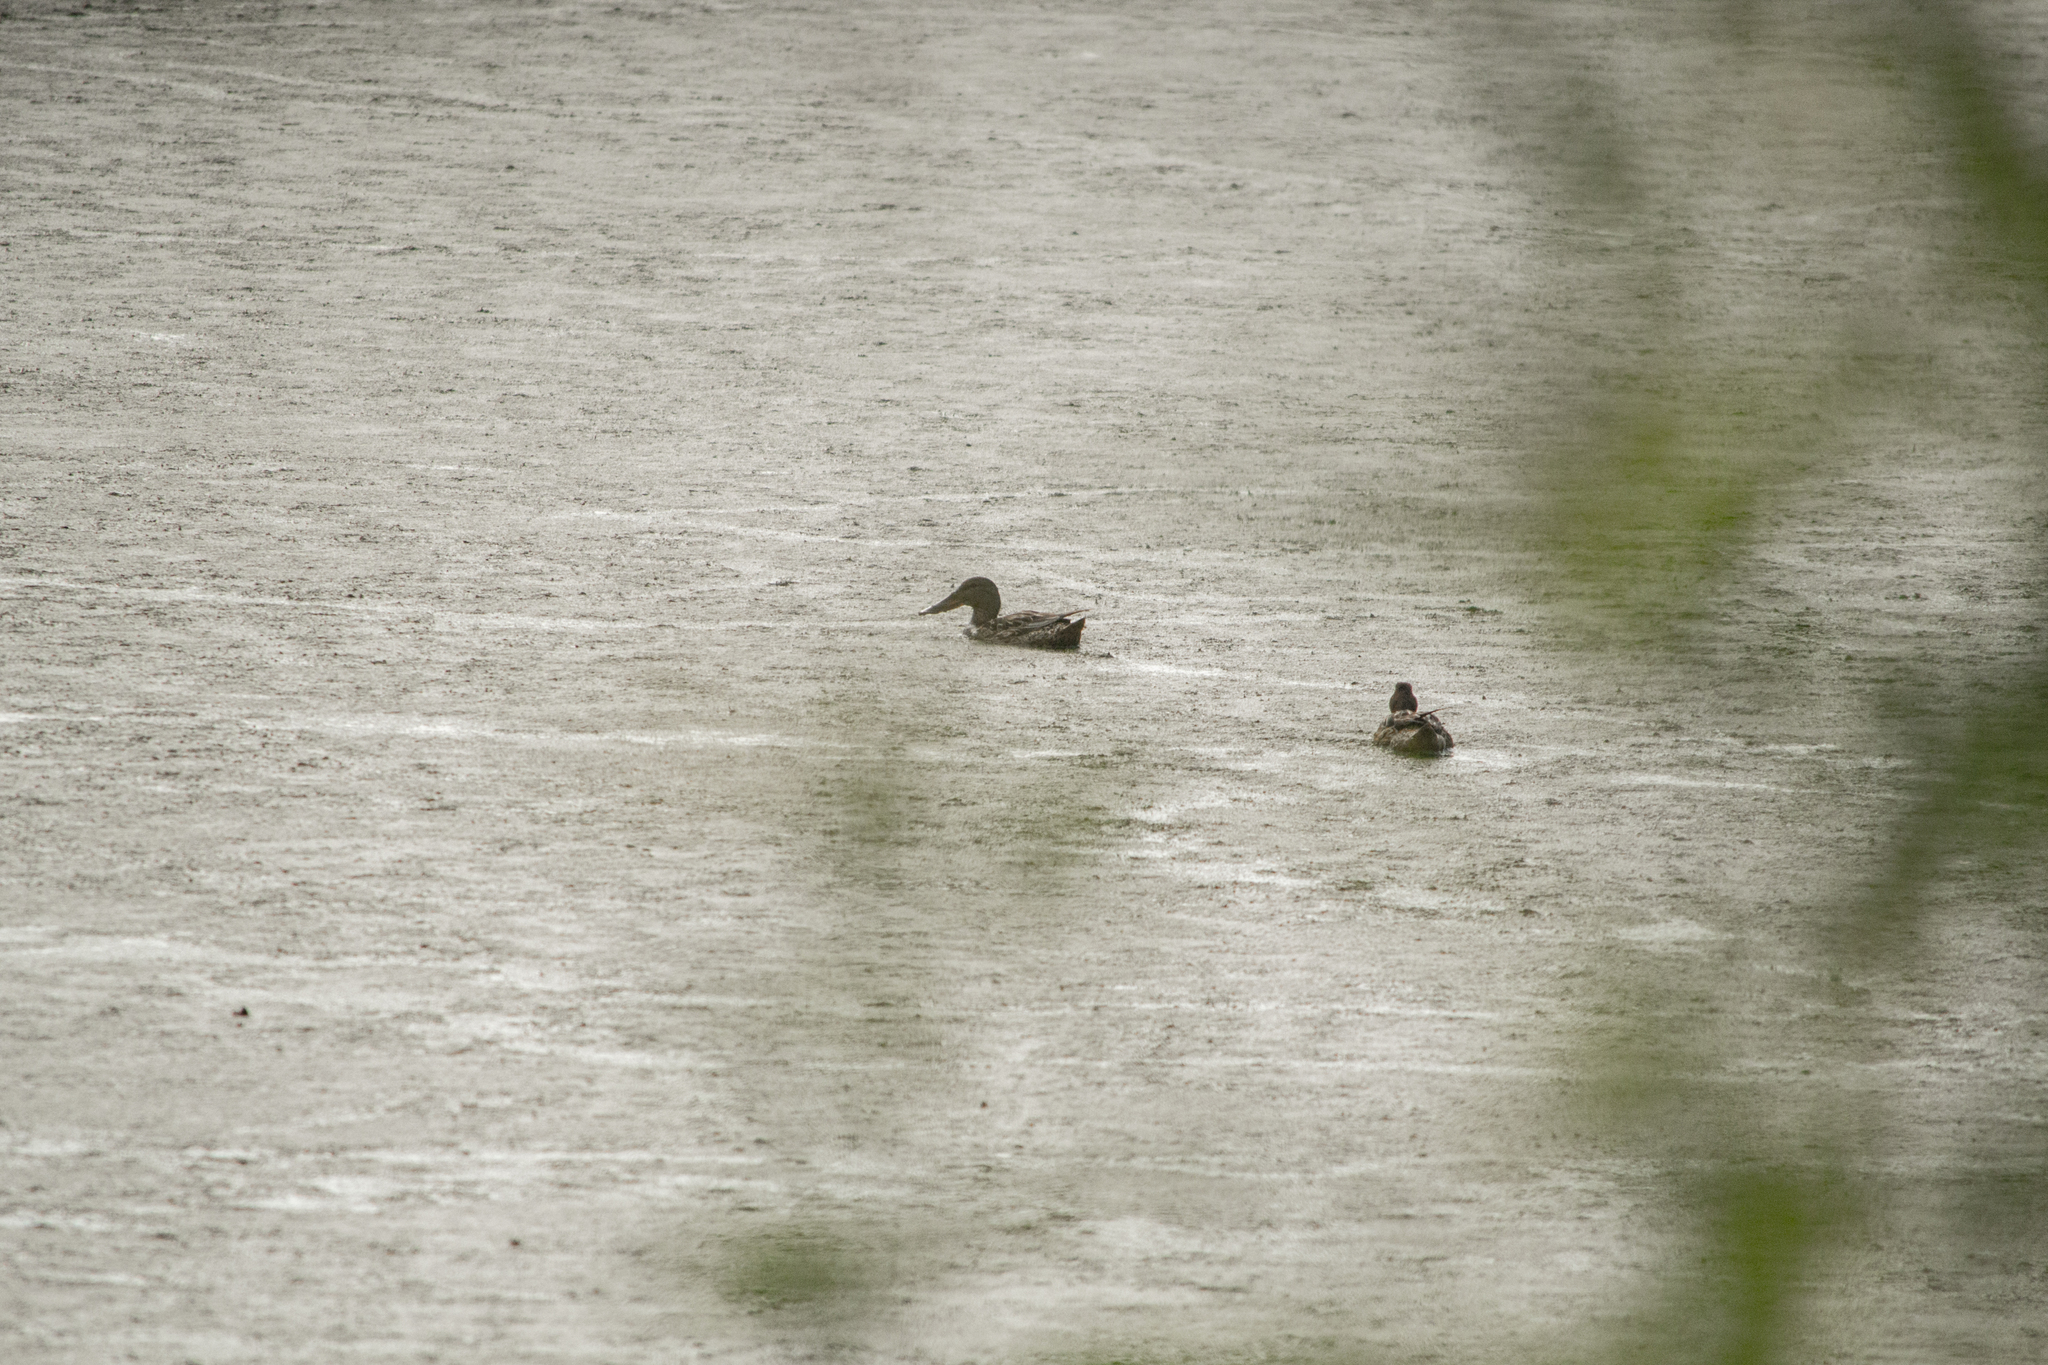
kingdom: Animalia
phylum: Chordata
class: Aves
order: Anseriformes
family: Anatidae
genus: Spatula
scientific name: Spatula clypeata
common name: Northern shoveler
